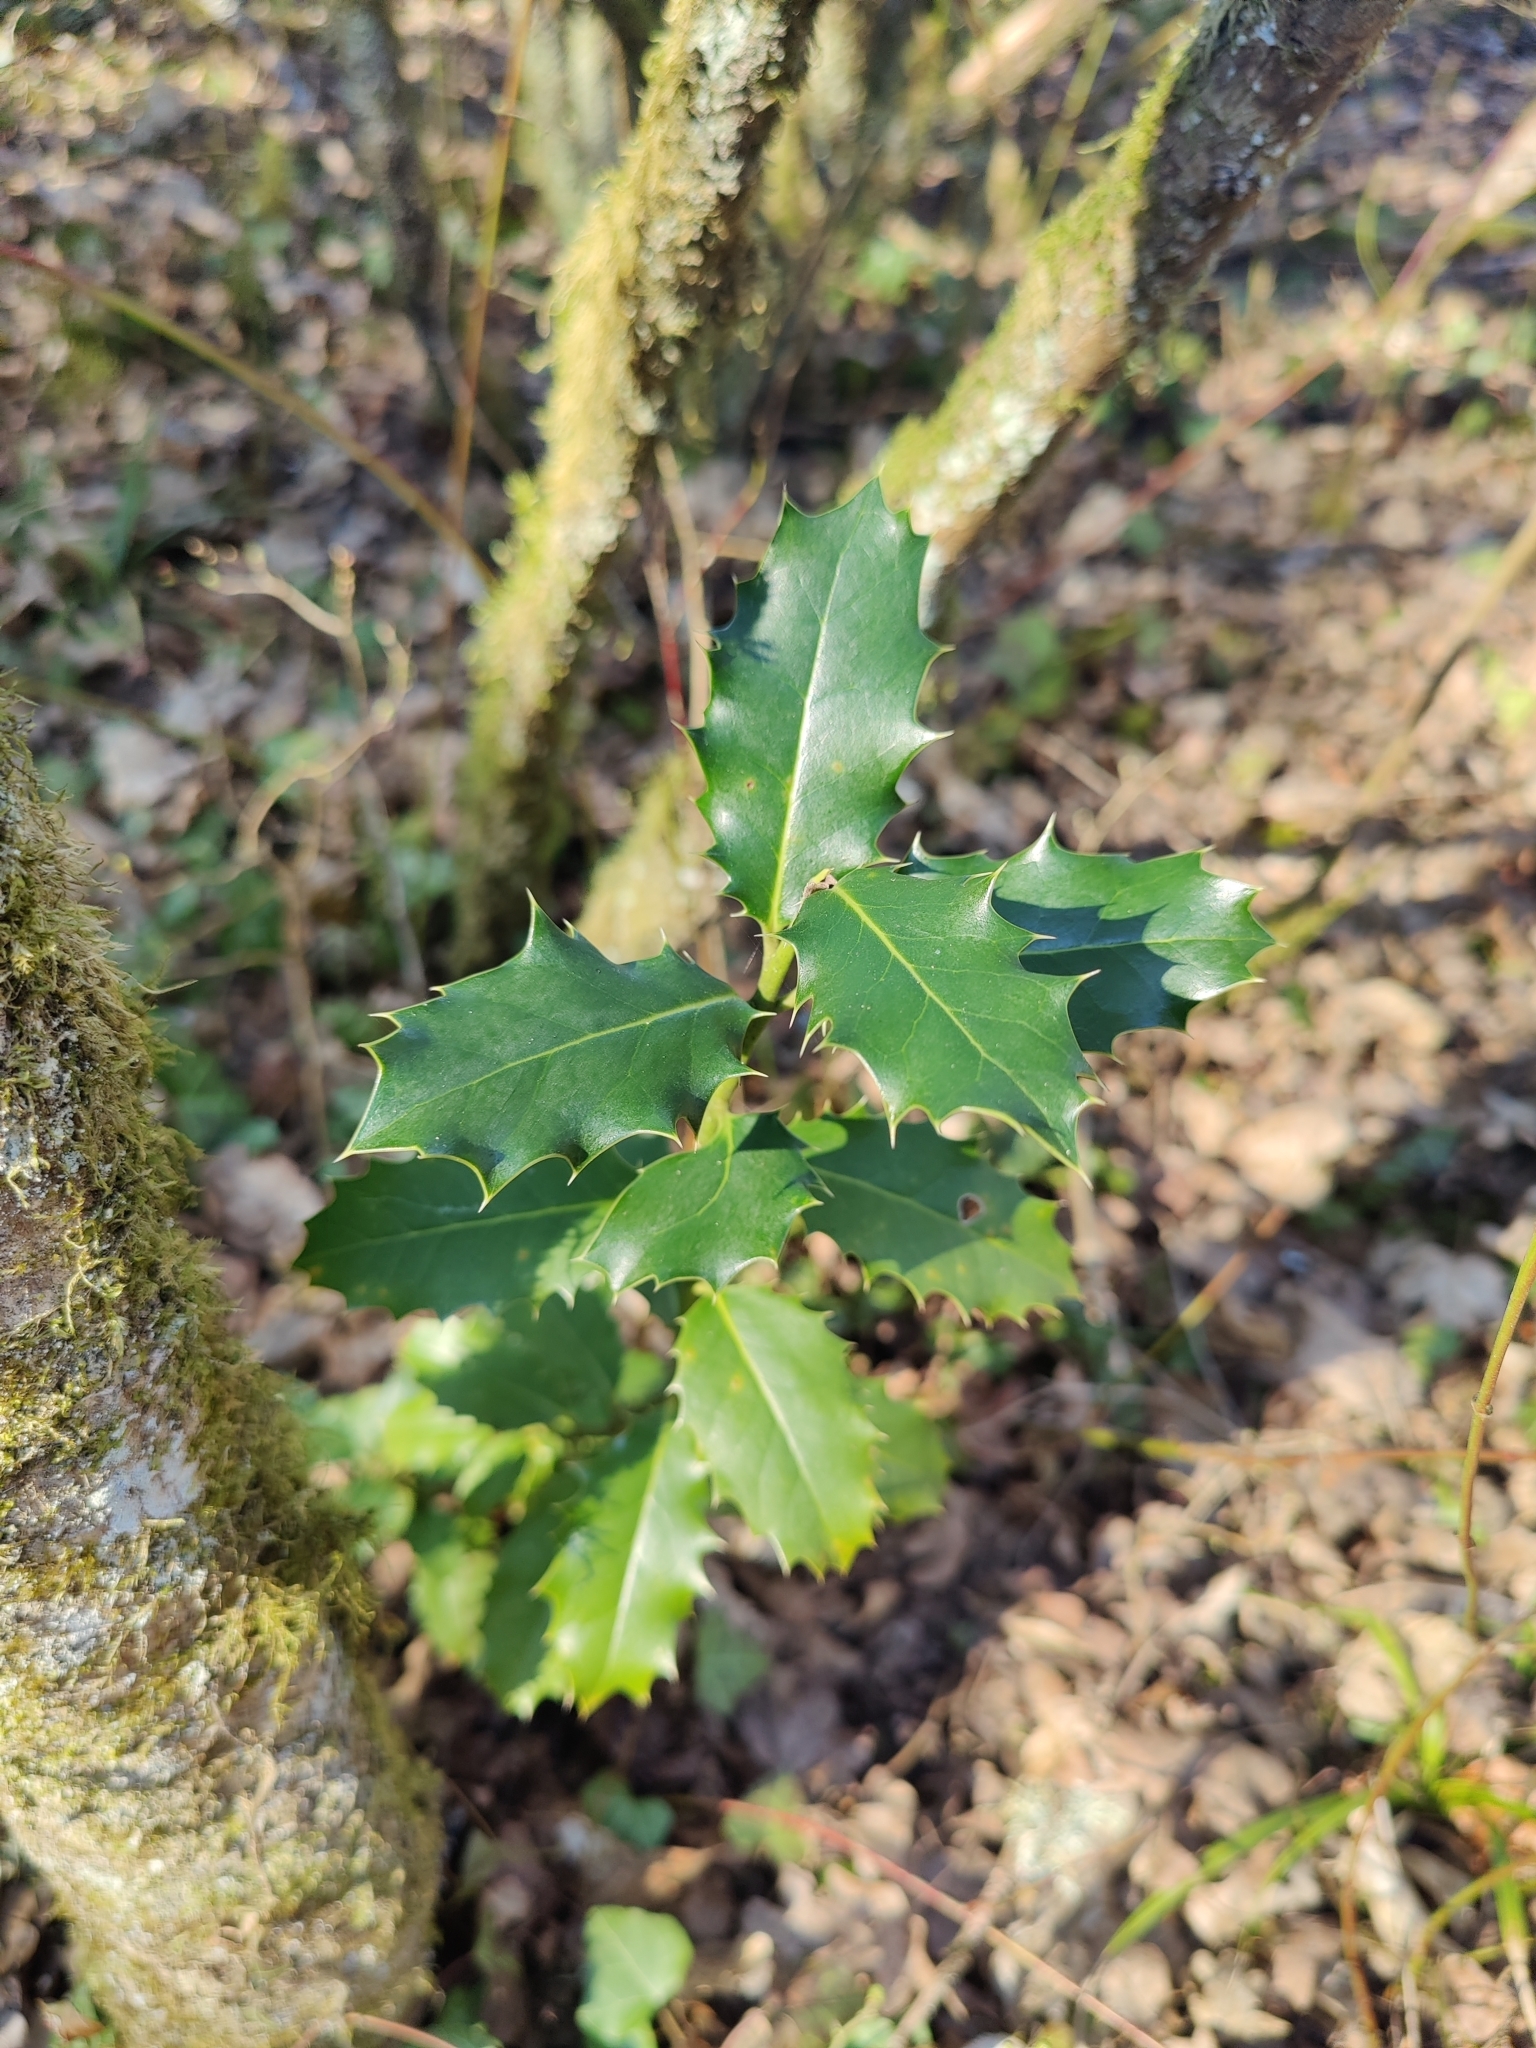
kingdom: Plantae
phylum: Tracheophyta
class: Magnoliopsida
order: Aquifoliales
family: Aquifoliaceae
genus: Ilex
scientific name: Ilex aquifolium
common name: English holly
